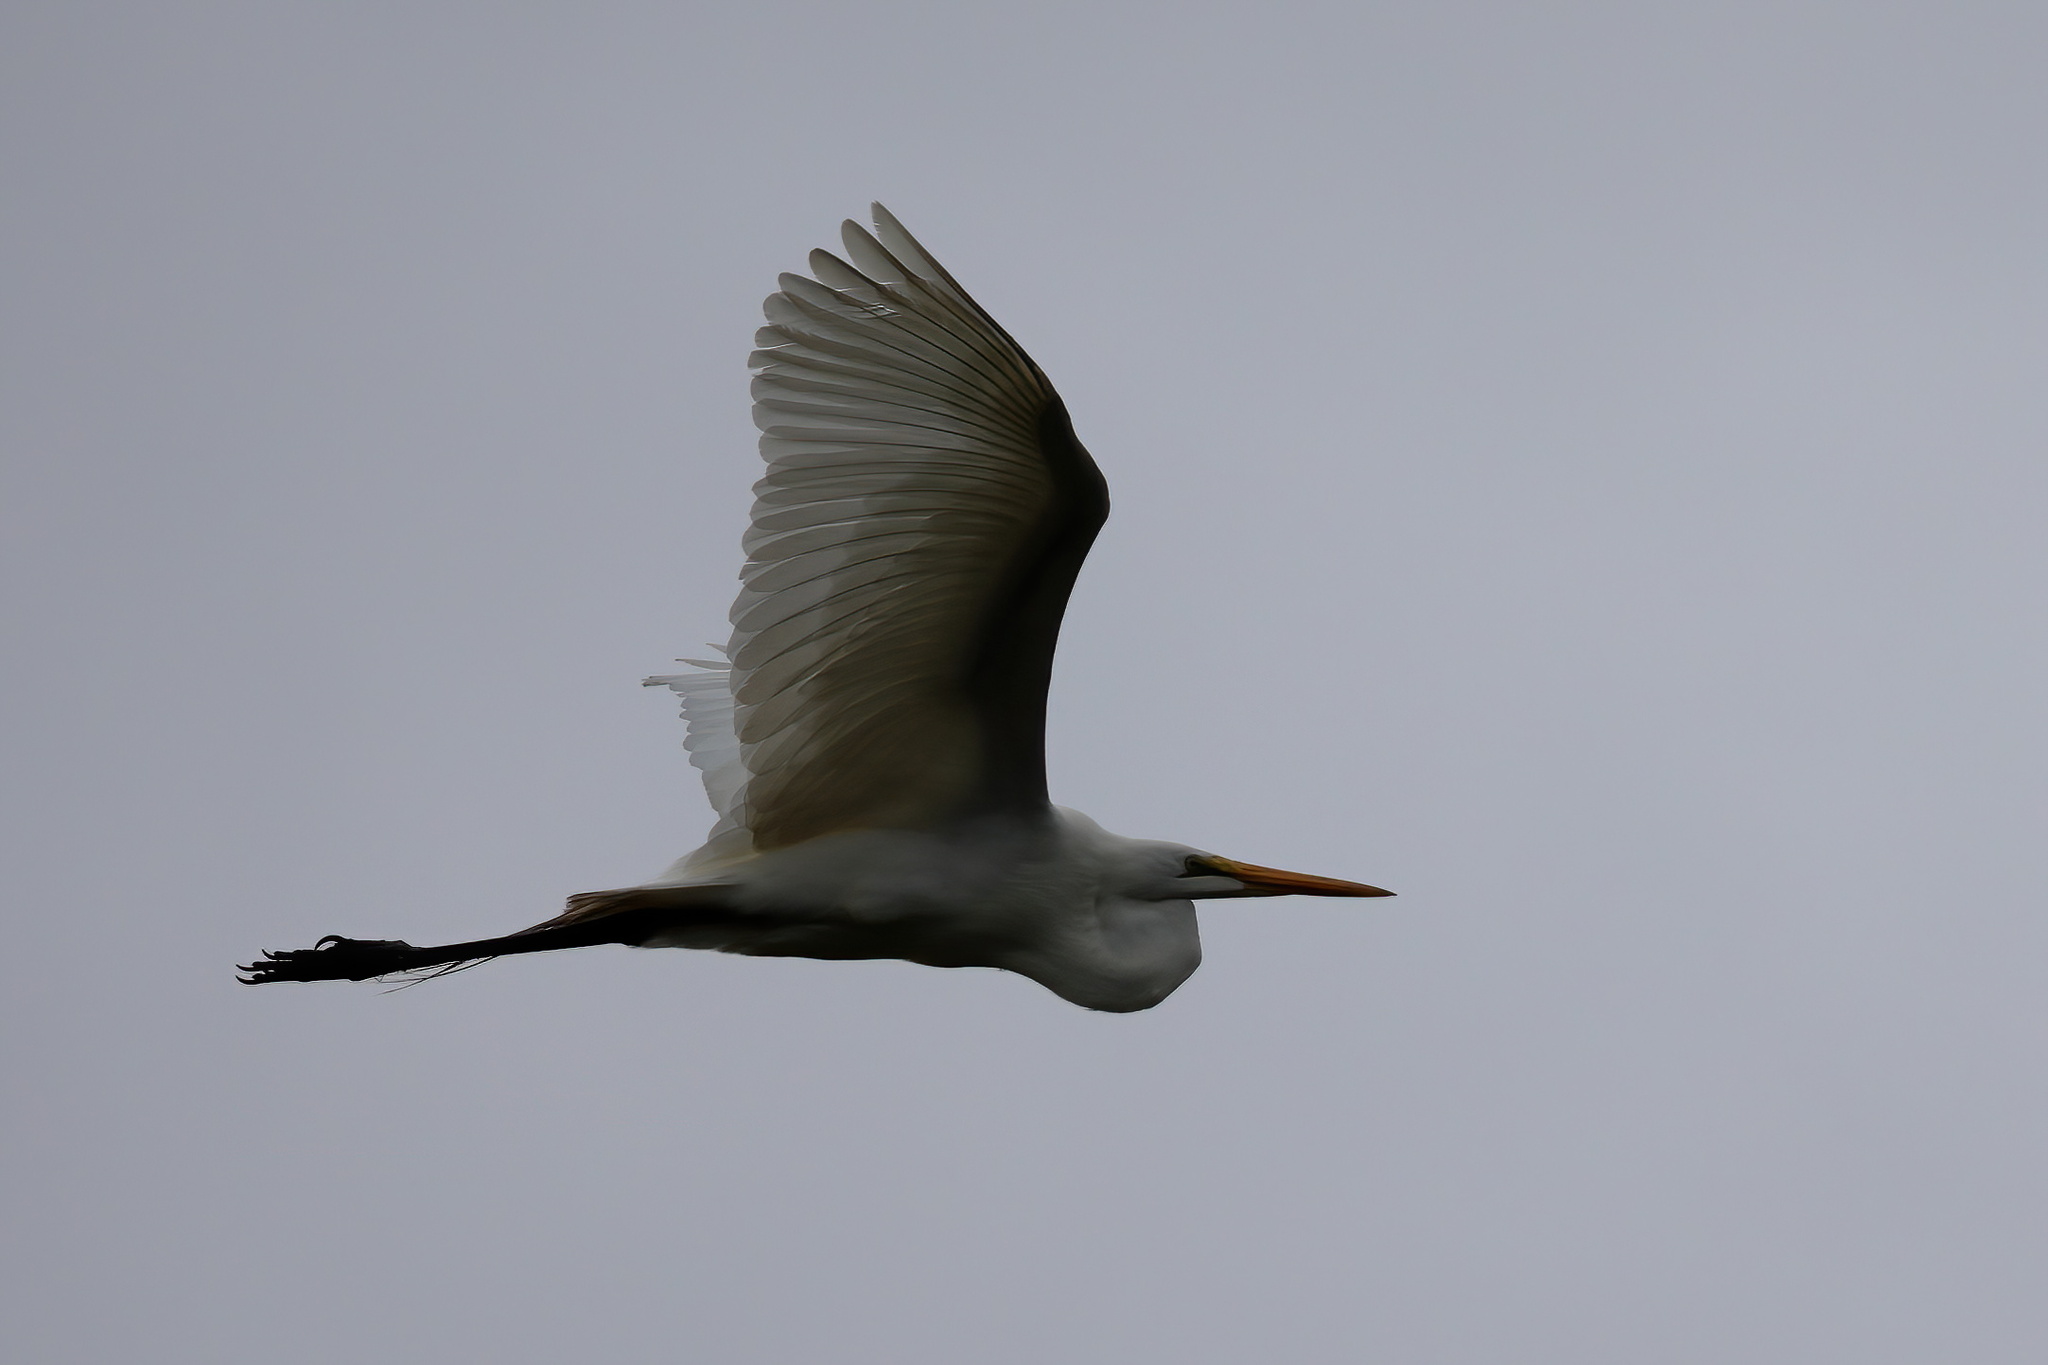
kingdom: Animalia
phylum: Chordata
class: Aves
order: Pelecaniformes
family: Ardeidae
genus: Ardea
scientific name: Ardea alba
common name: Great egret
